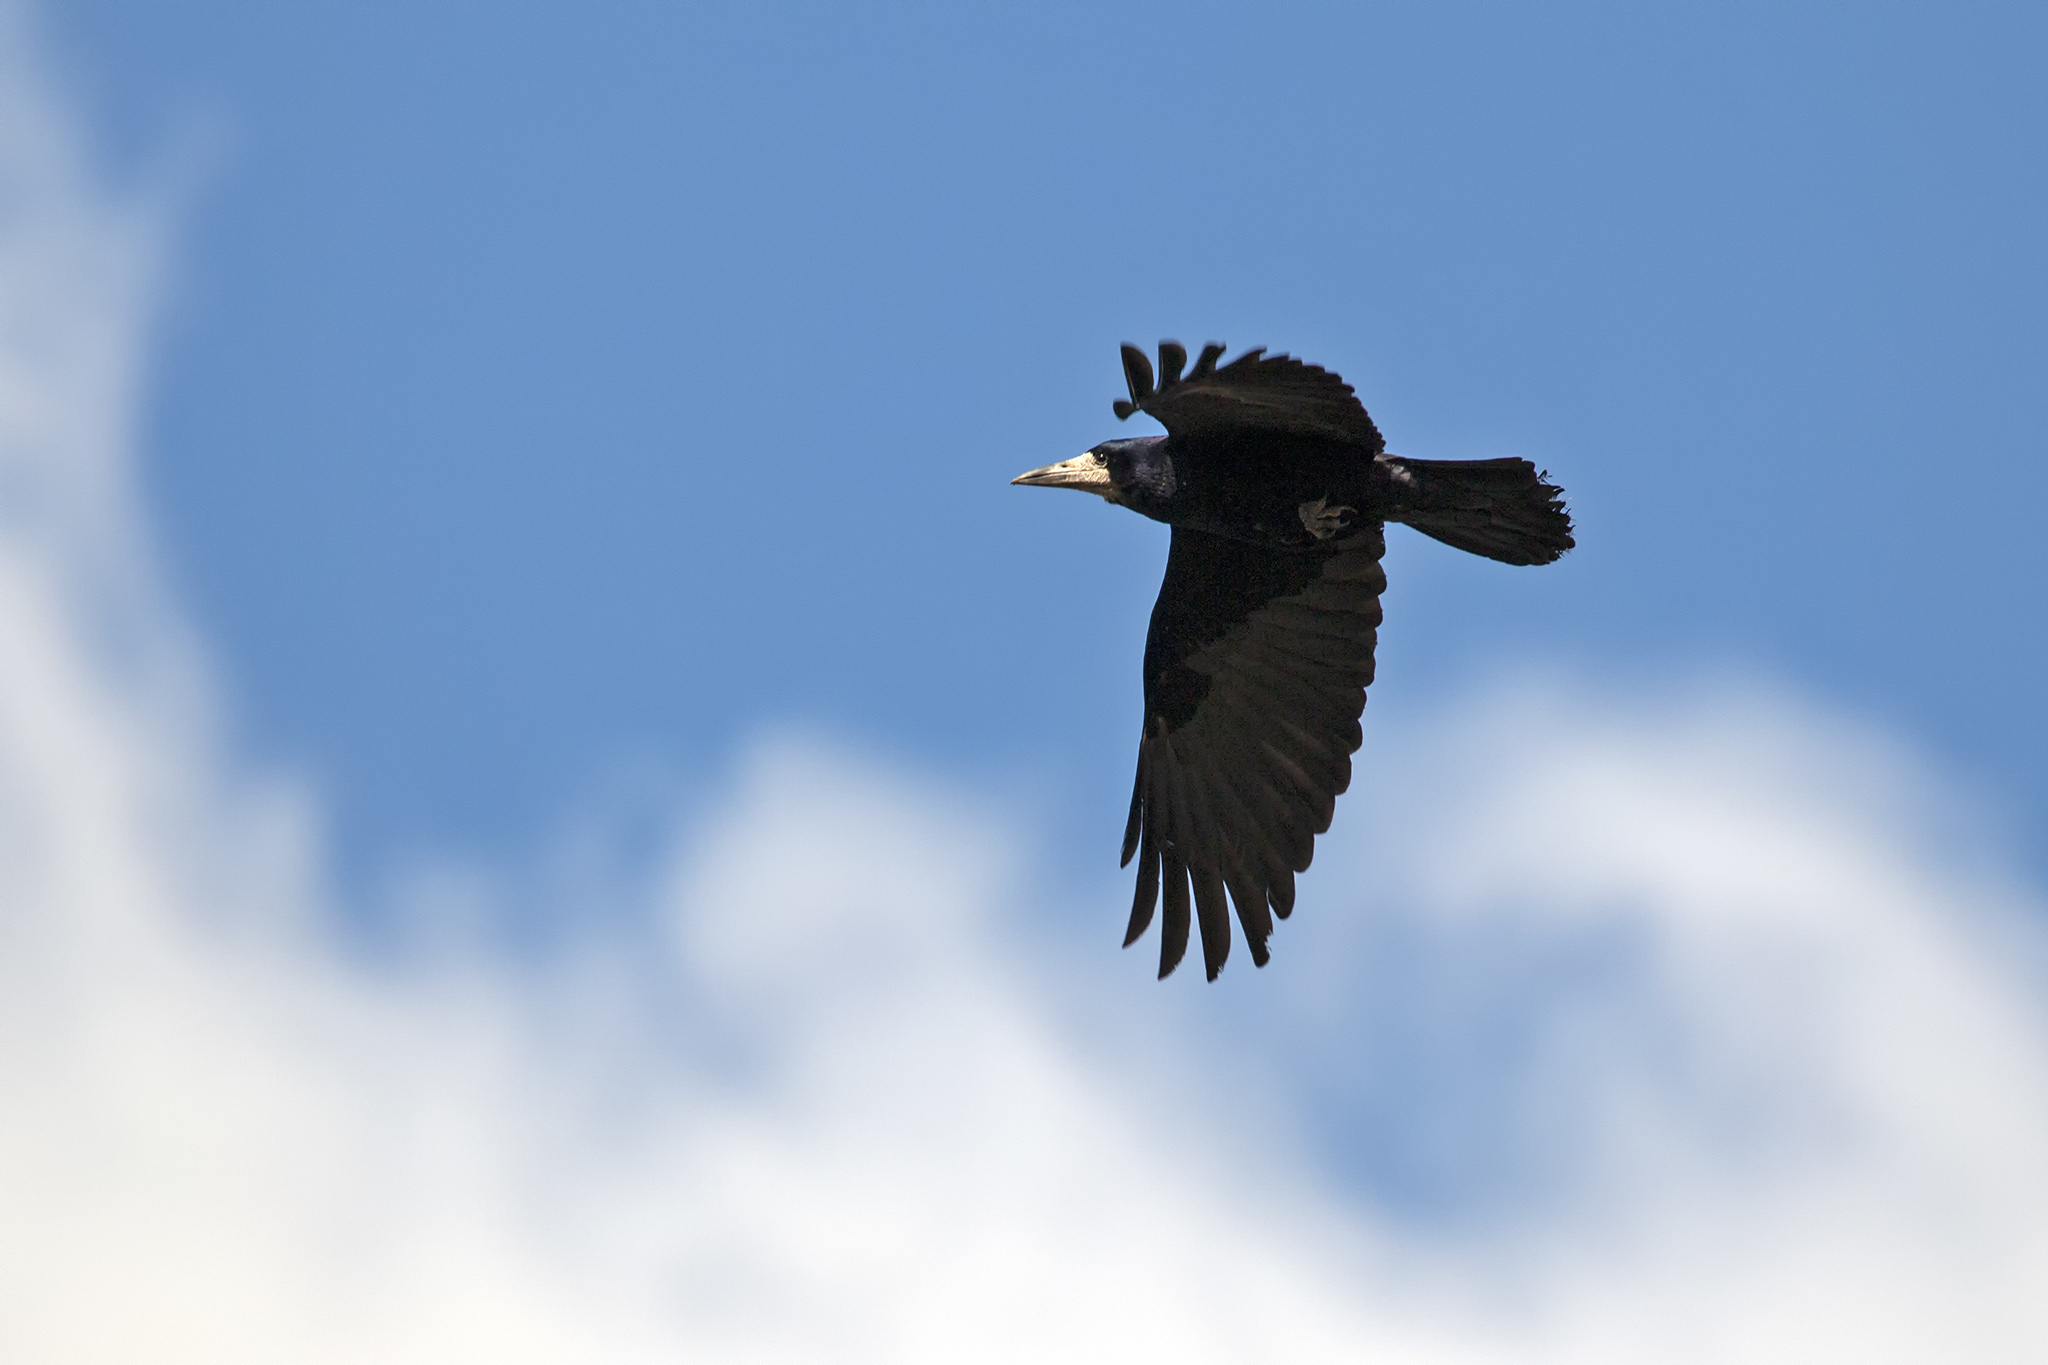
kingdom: Animalia
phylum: Chordata
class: Aves
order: Passeriformes
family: Corvidae
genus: Corvus
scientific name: Corvus frugilegus
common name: Rook
